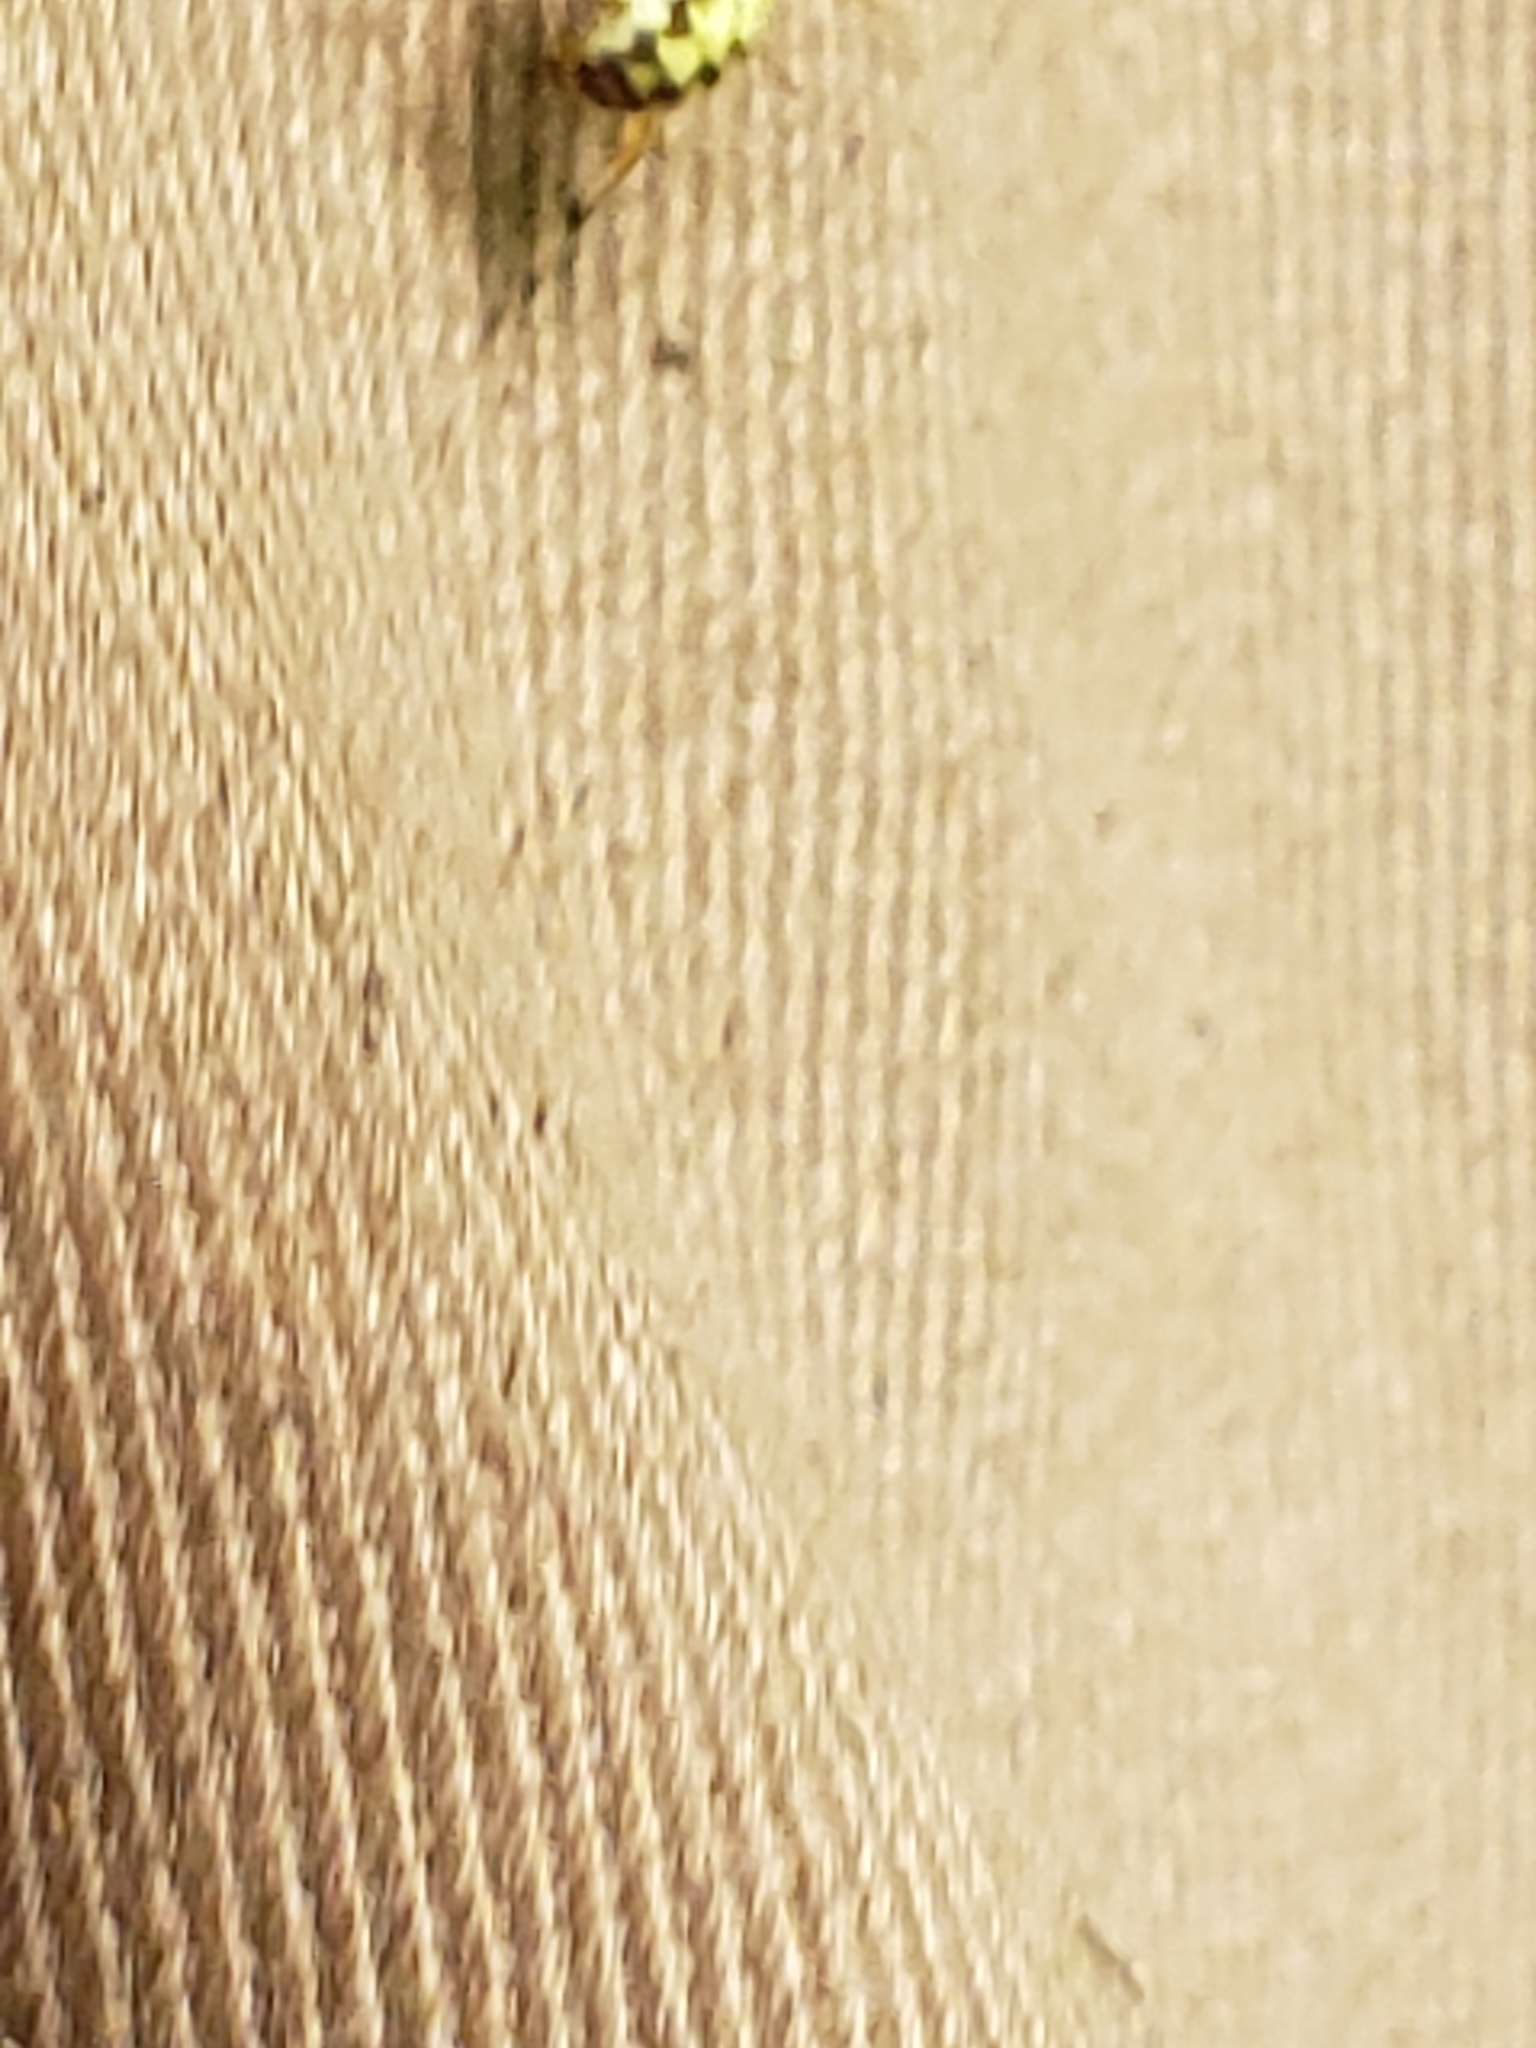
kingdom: Animalia
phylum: Arthropoda
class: Arachnida
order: Araneae
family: Araneidae
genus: Araneus
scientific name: Araneus marmoreus
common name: Marbled orbweaver
